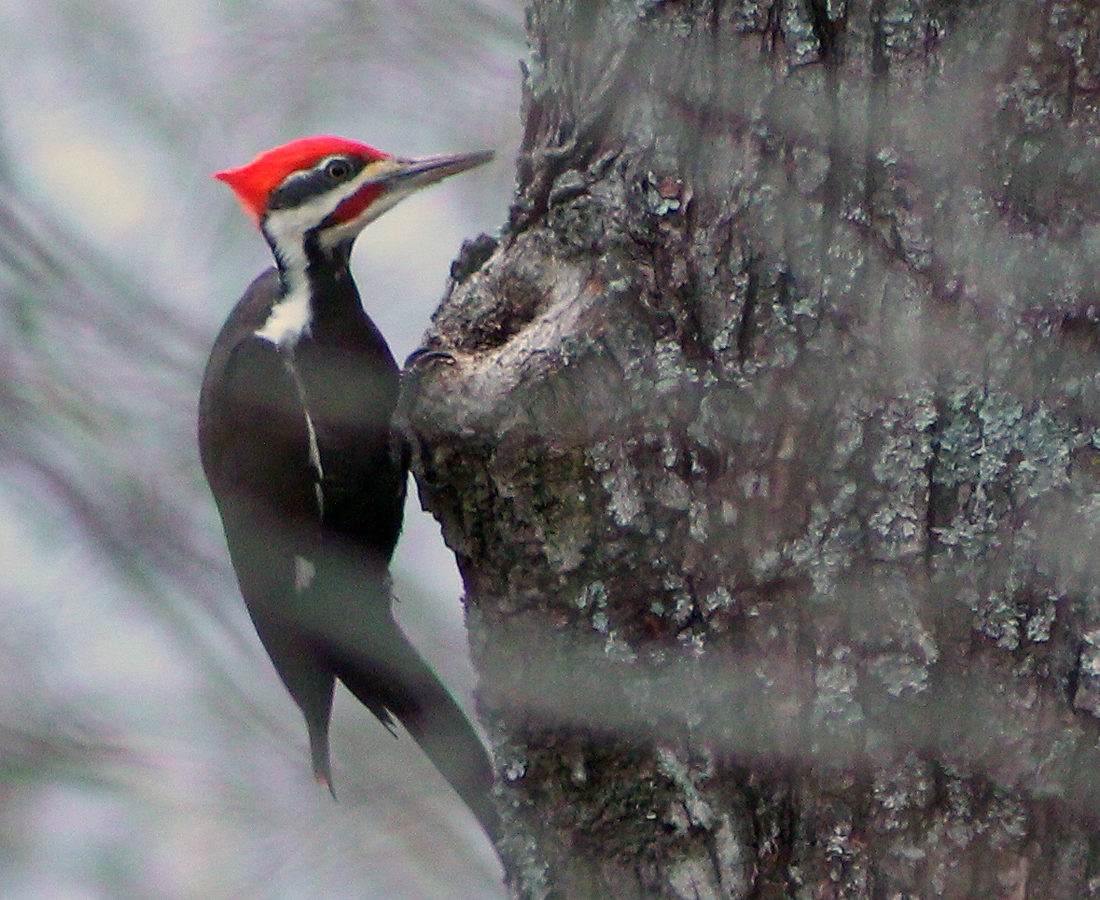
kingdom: Animalia
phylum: Chordata
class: Aves
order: Piciformes
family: Picidae
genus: Dryocopus
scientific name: Dryocopus pileatus
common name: Pileated woodpecker
